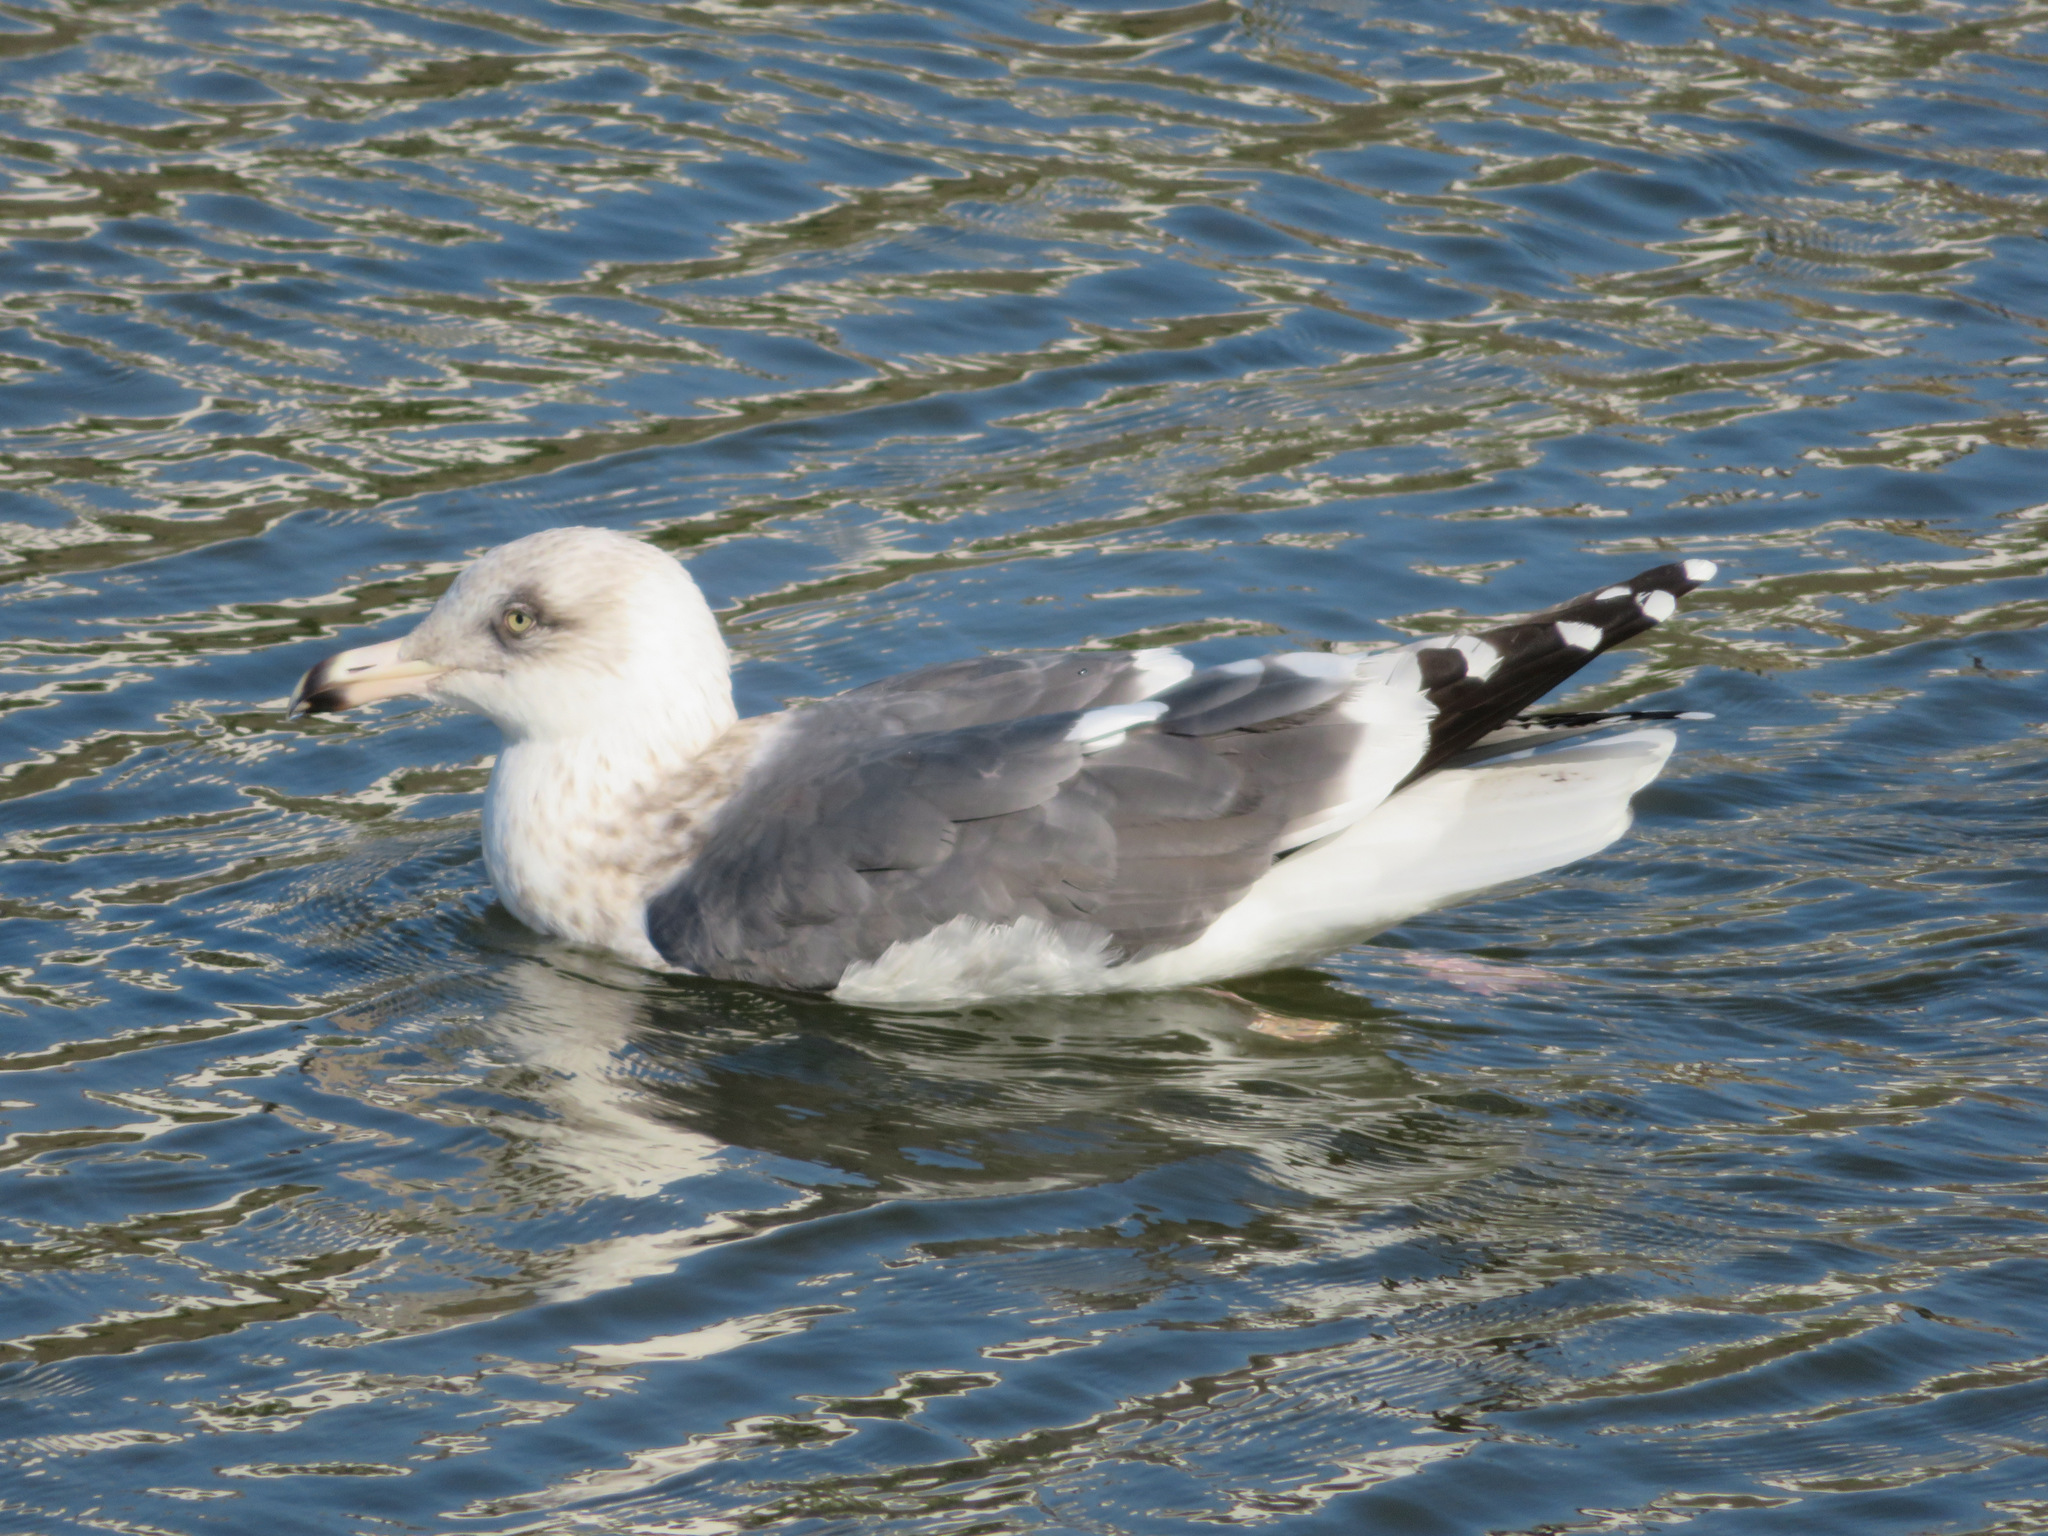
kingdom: Animalia
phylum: Chordata
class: Aves
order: Charadriiformes
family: Laridae
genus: Larus
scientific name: Larus schistisagus
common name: Slaty-backed gull
